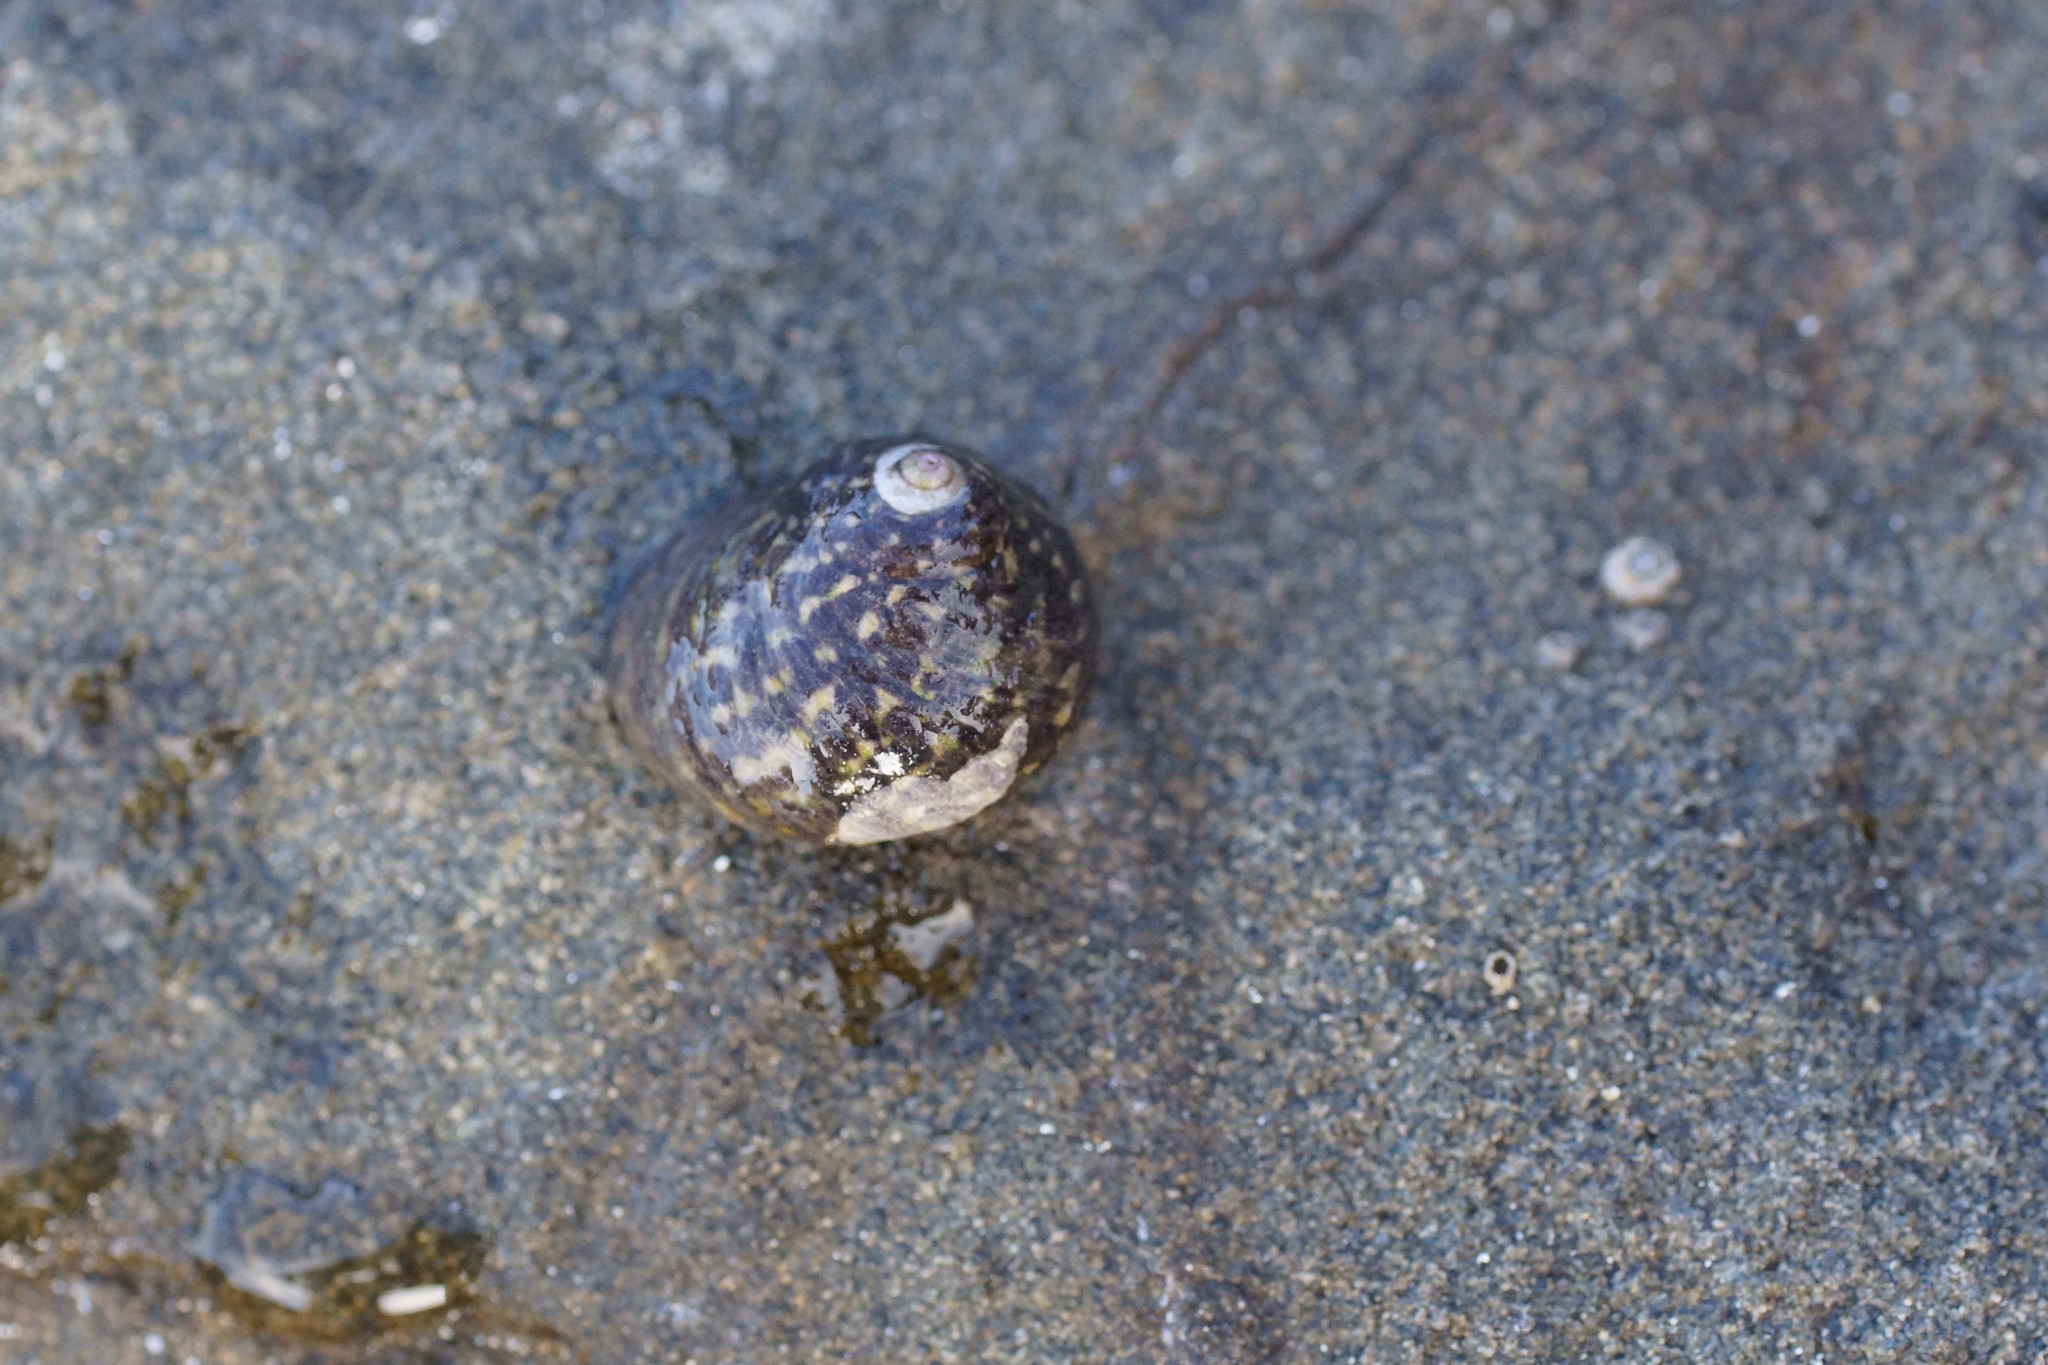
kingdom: Animalia
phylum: Mollusca
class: Gastropoda
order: Trochida
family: Trochidae
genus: Diloma
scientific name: Diloma concameratum
